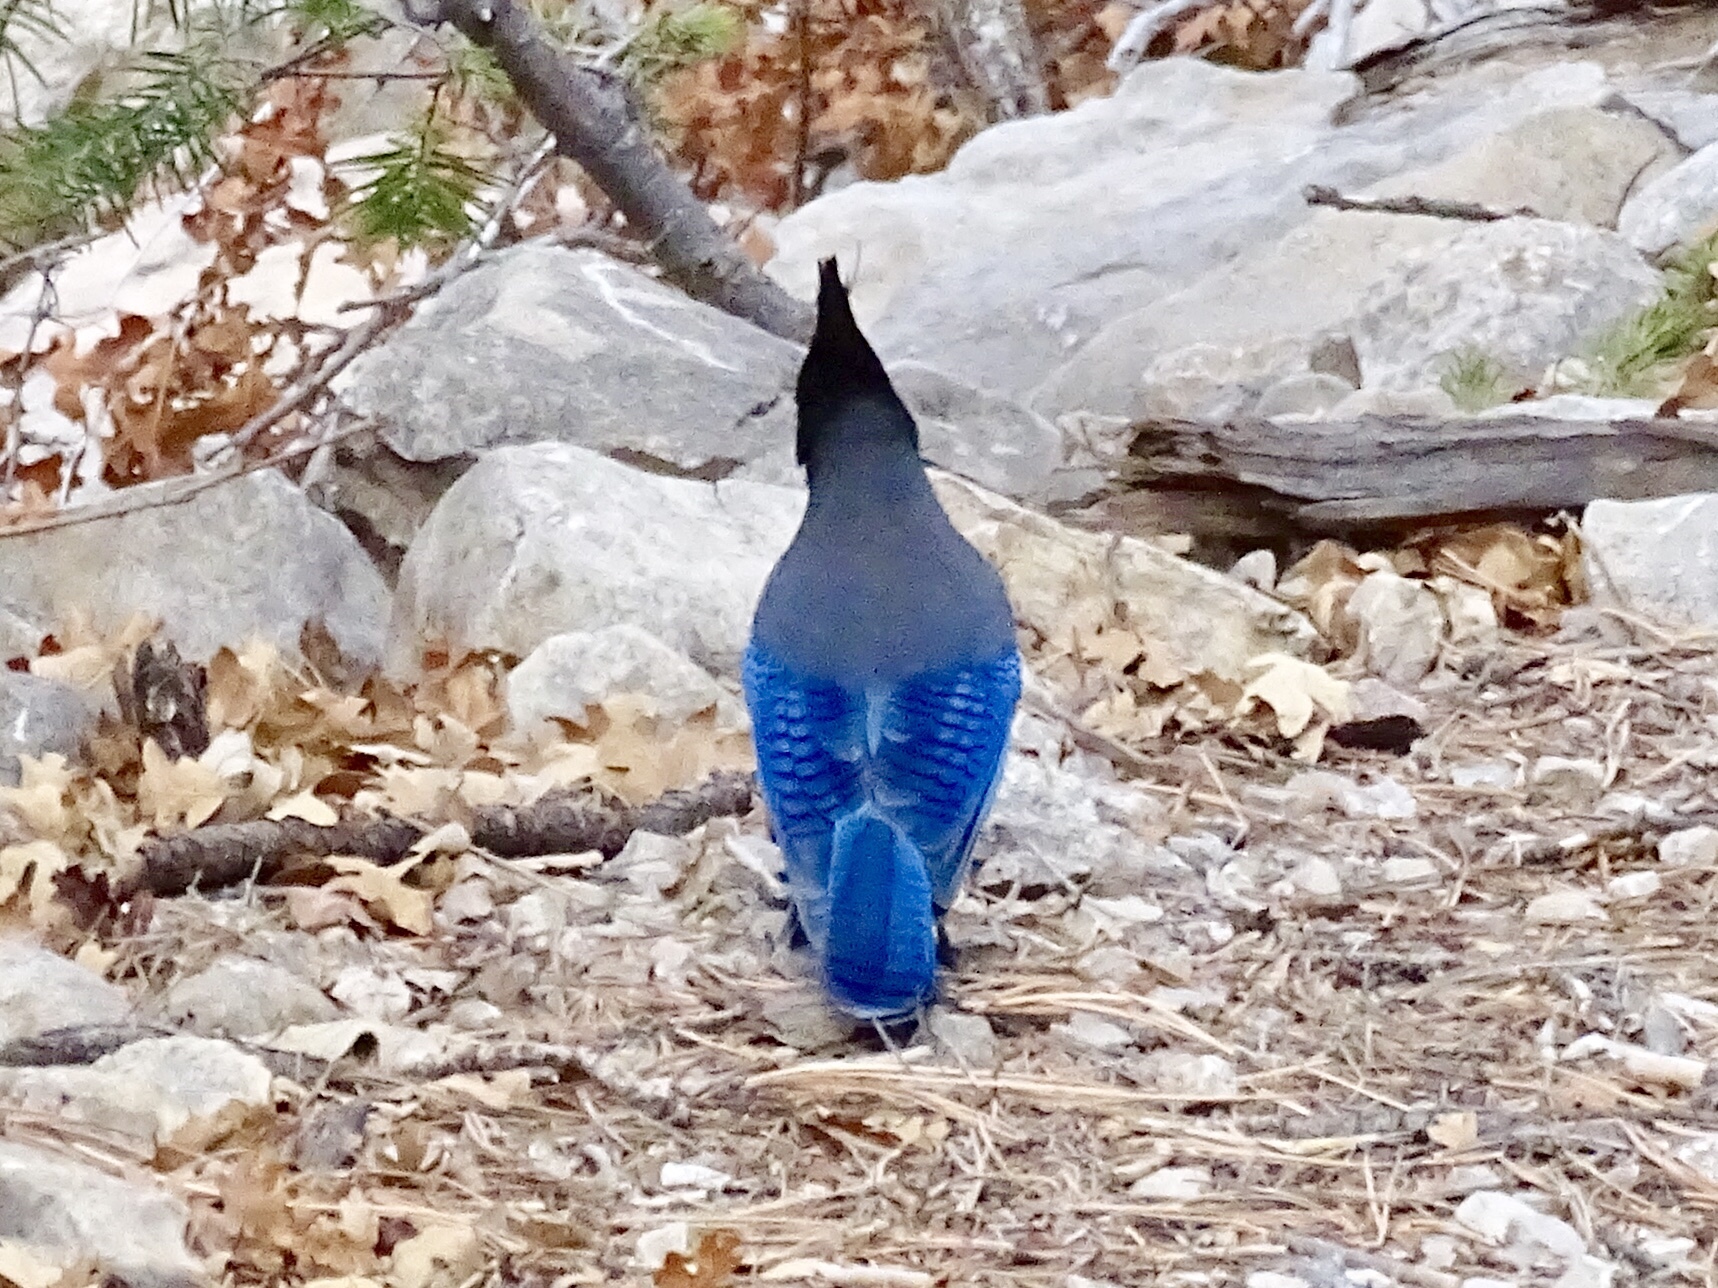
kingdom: Animalia
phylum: Chordata
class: Aves
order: Passeriformes
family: Corvidae
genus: Cyanocitta
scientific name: Cyanocitta stelleri
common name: Steller's jay
